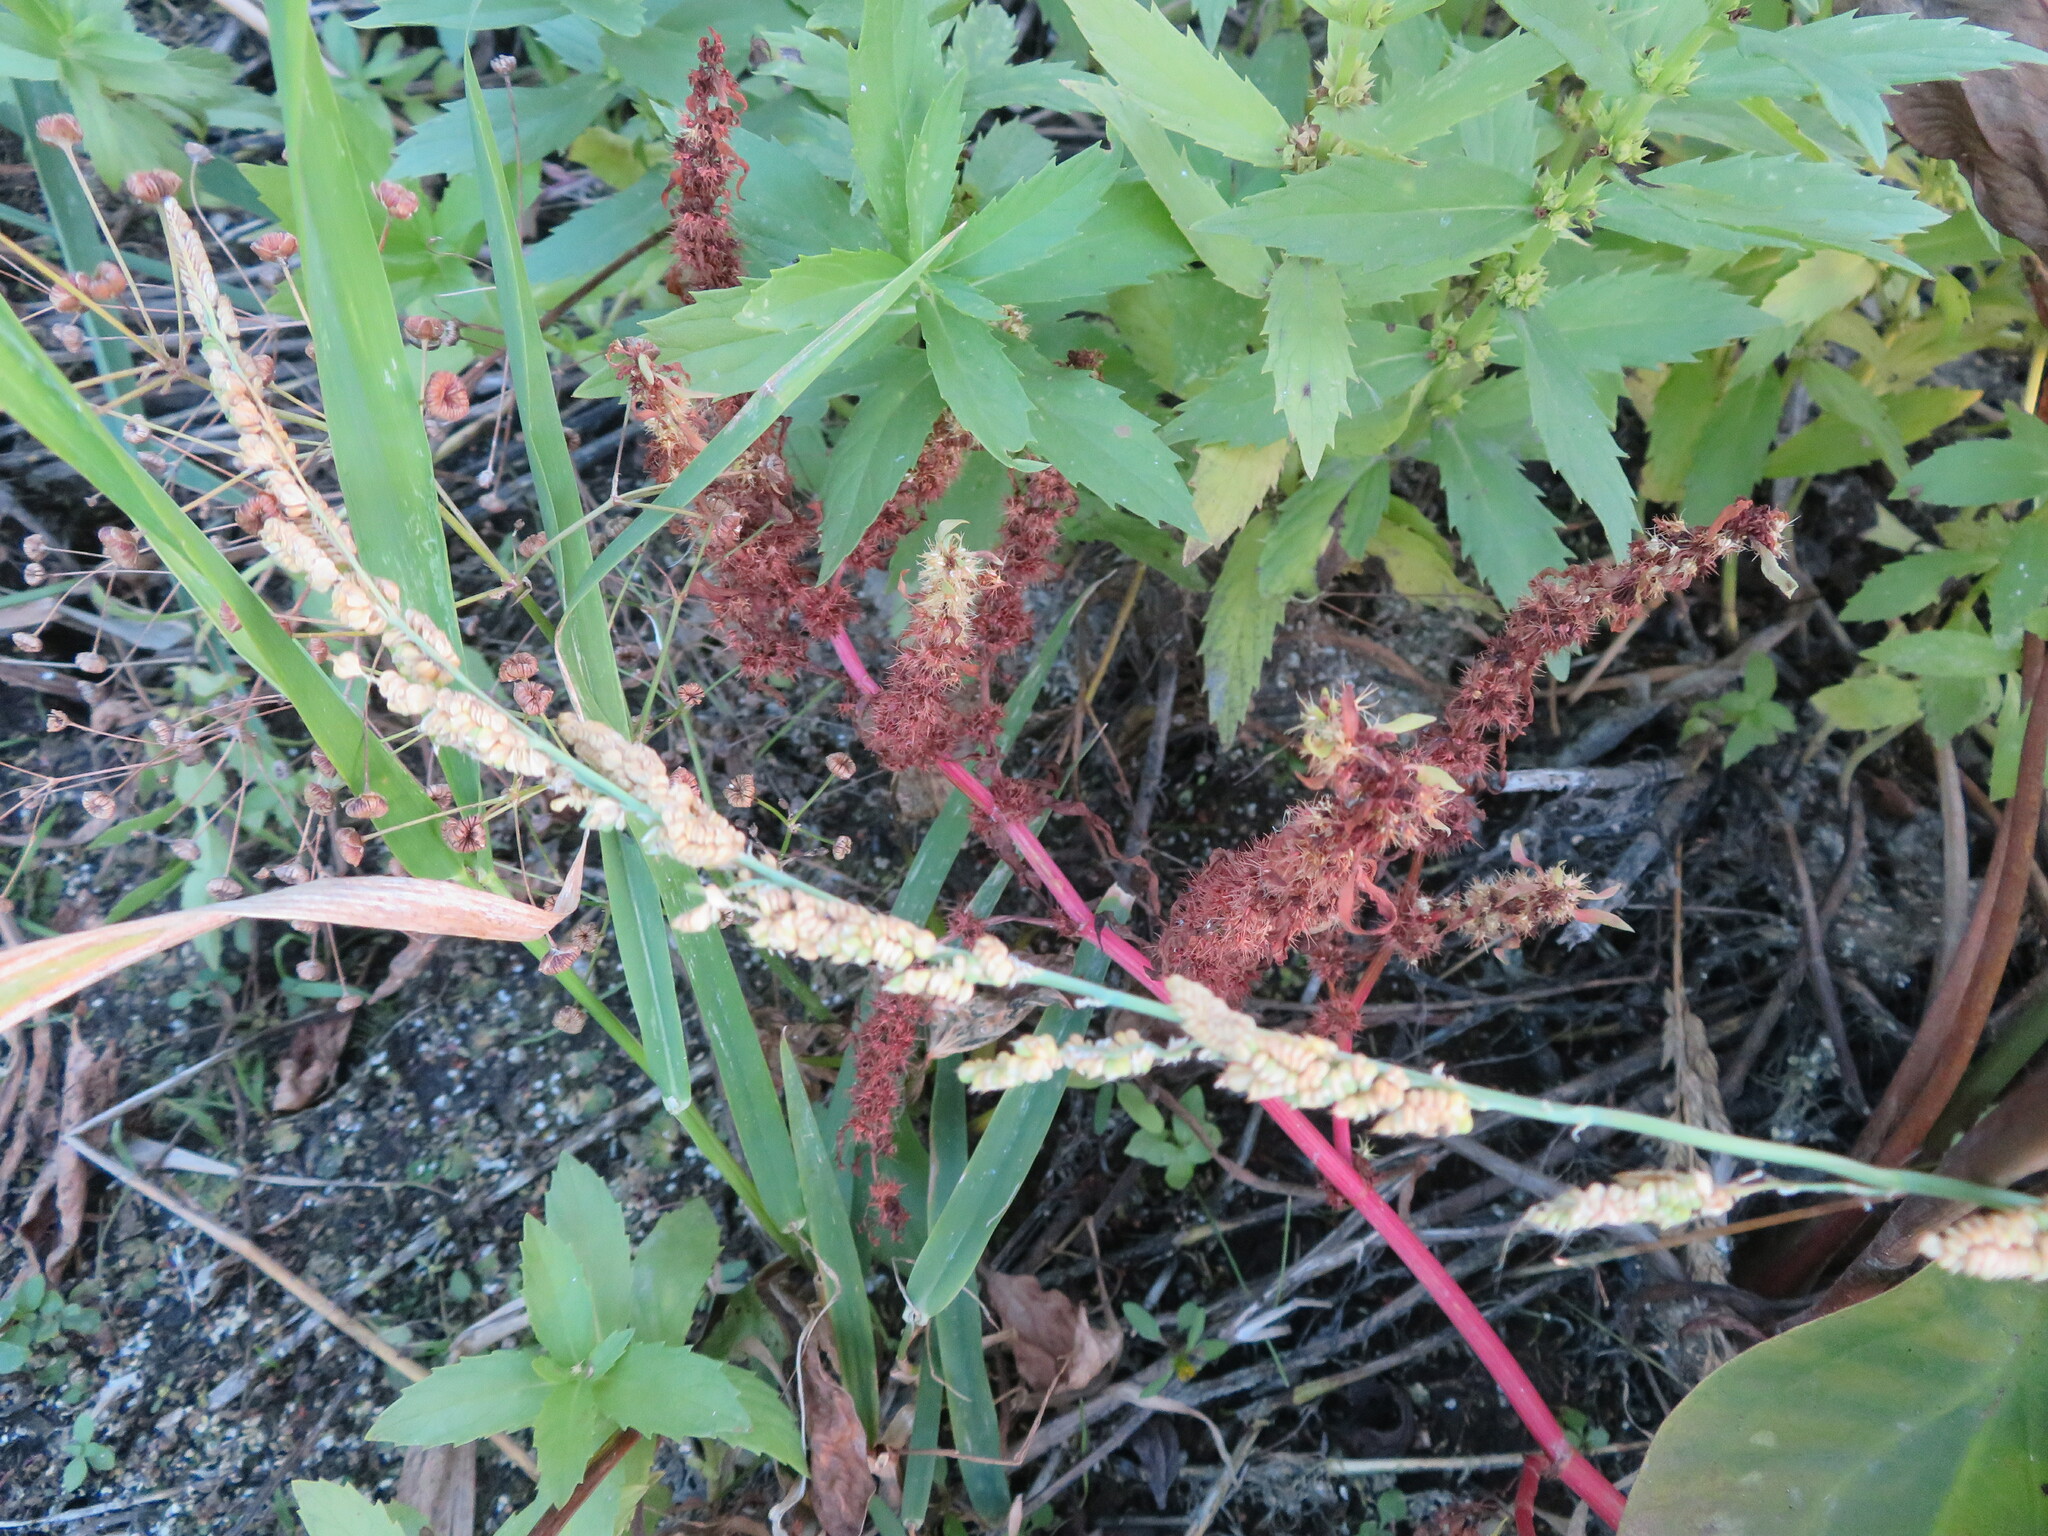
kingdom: Plantae
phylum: Tracheophyta
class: Liliopsida
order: Poales
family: Poaceae
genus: Beckmannia
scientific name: Beckmannia syzigachne
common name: American slough-grass
